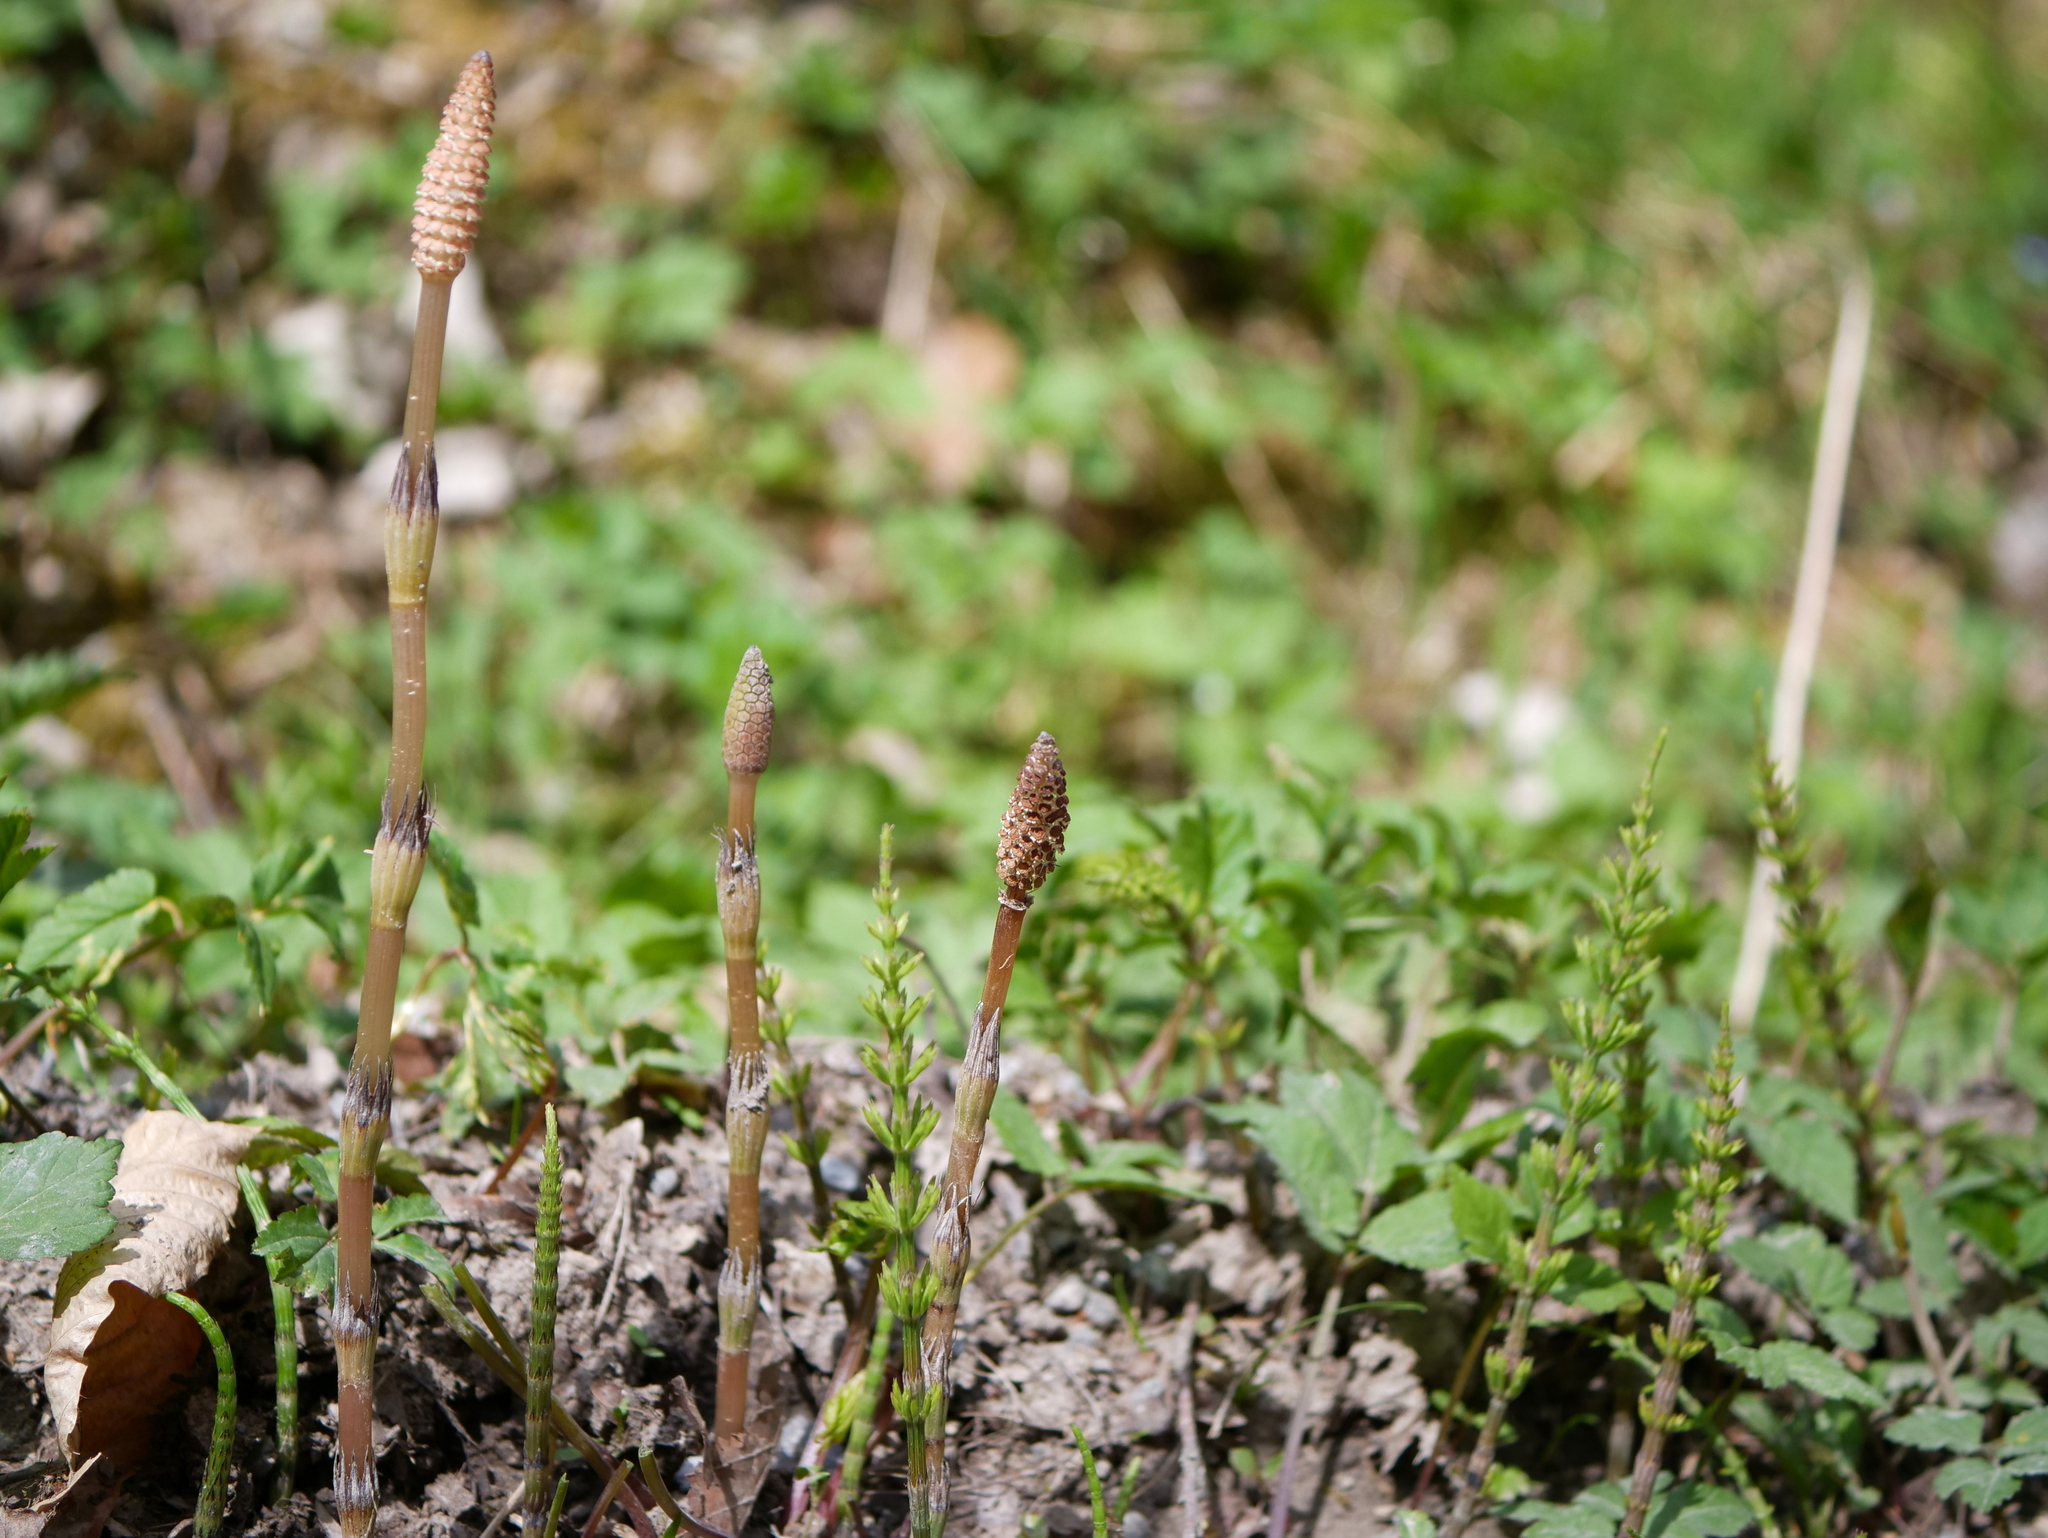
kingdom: Plantae
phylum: Tracheophyta
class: Polypodiopsida
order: Equisetales
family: Equisetaceae
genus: Equisetum
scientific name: Equisetum arvense
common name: Field horsetail
